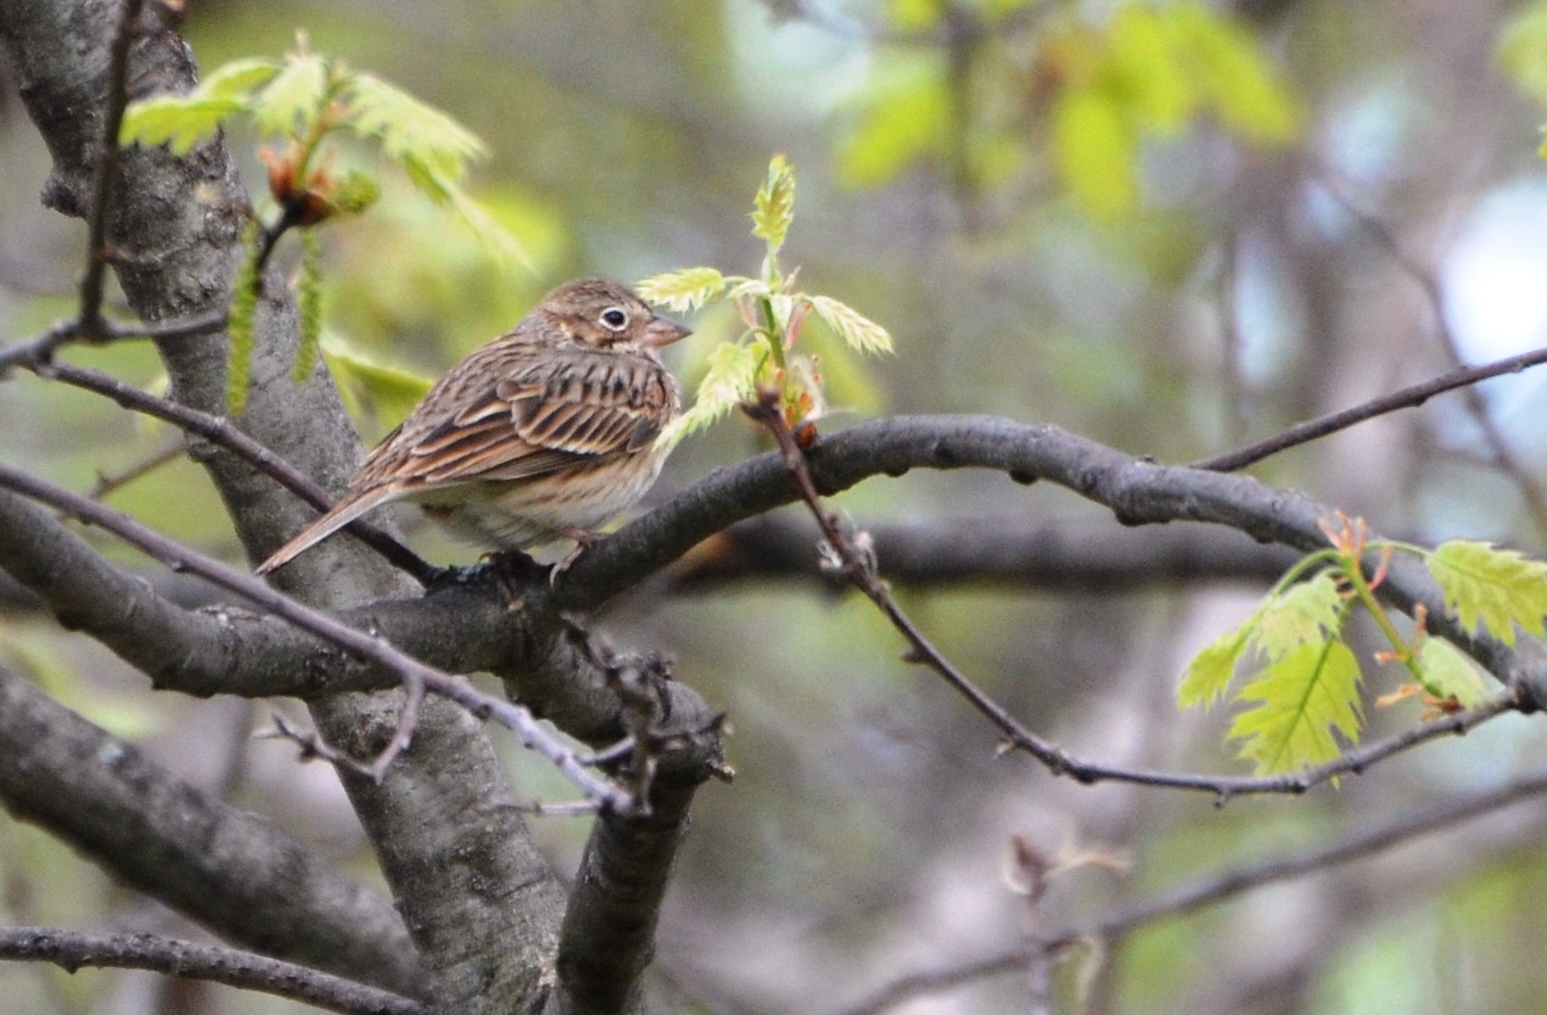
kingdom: Animalia
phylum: Chordata
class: Aves
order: Passeriformes
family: Passerellidae
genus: Pooecetes
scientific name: Pooecetes gramineus
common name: Vesper sparrow
